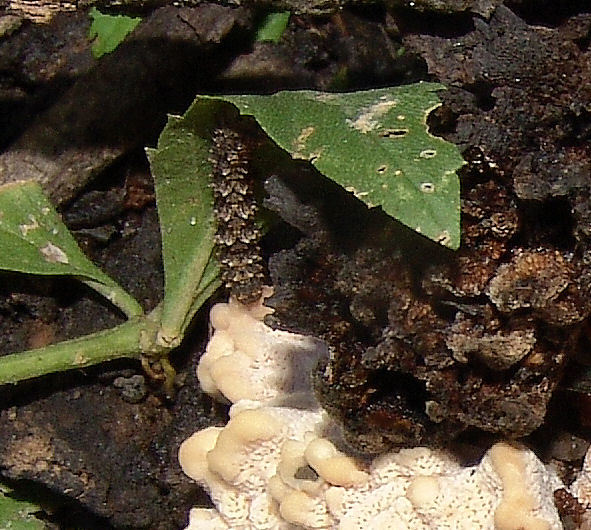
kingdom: Animalia
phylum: Arthropoda
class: Insecta
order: Lepidoptera
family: Erebidae
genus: Metalectra
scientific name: Metalectra discalis
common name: Common fungus moth
